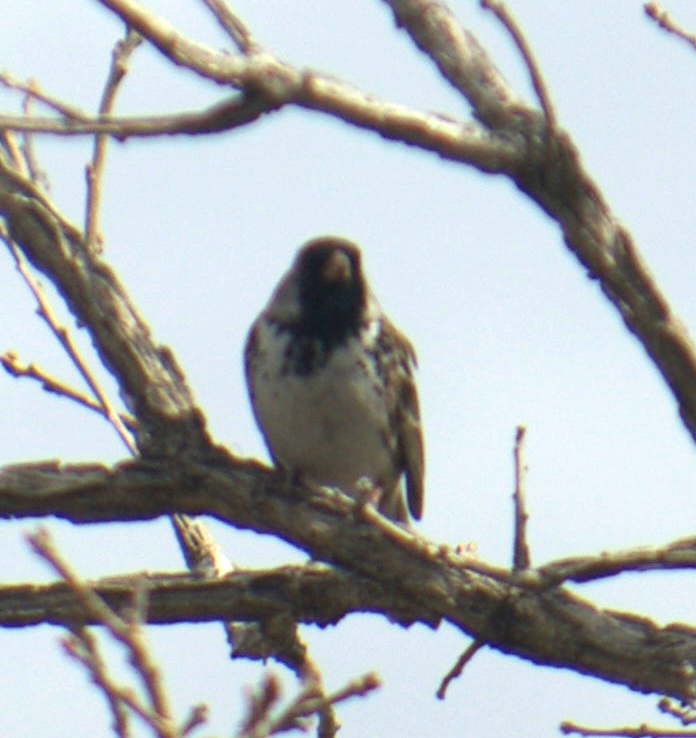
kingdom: Animalia
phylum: Chordata
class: Aves
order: Passeriformes
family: Passerellidae
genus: Zonotrichia
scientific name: Zonotrichia querula
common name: Harris's sparrow
